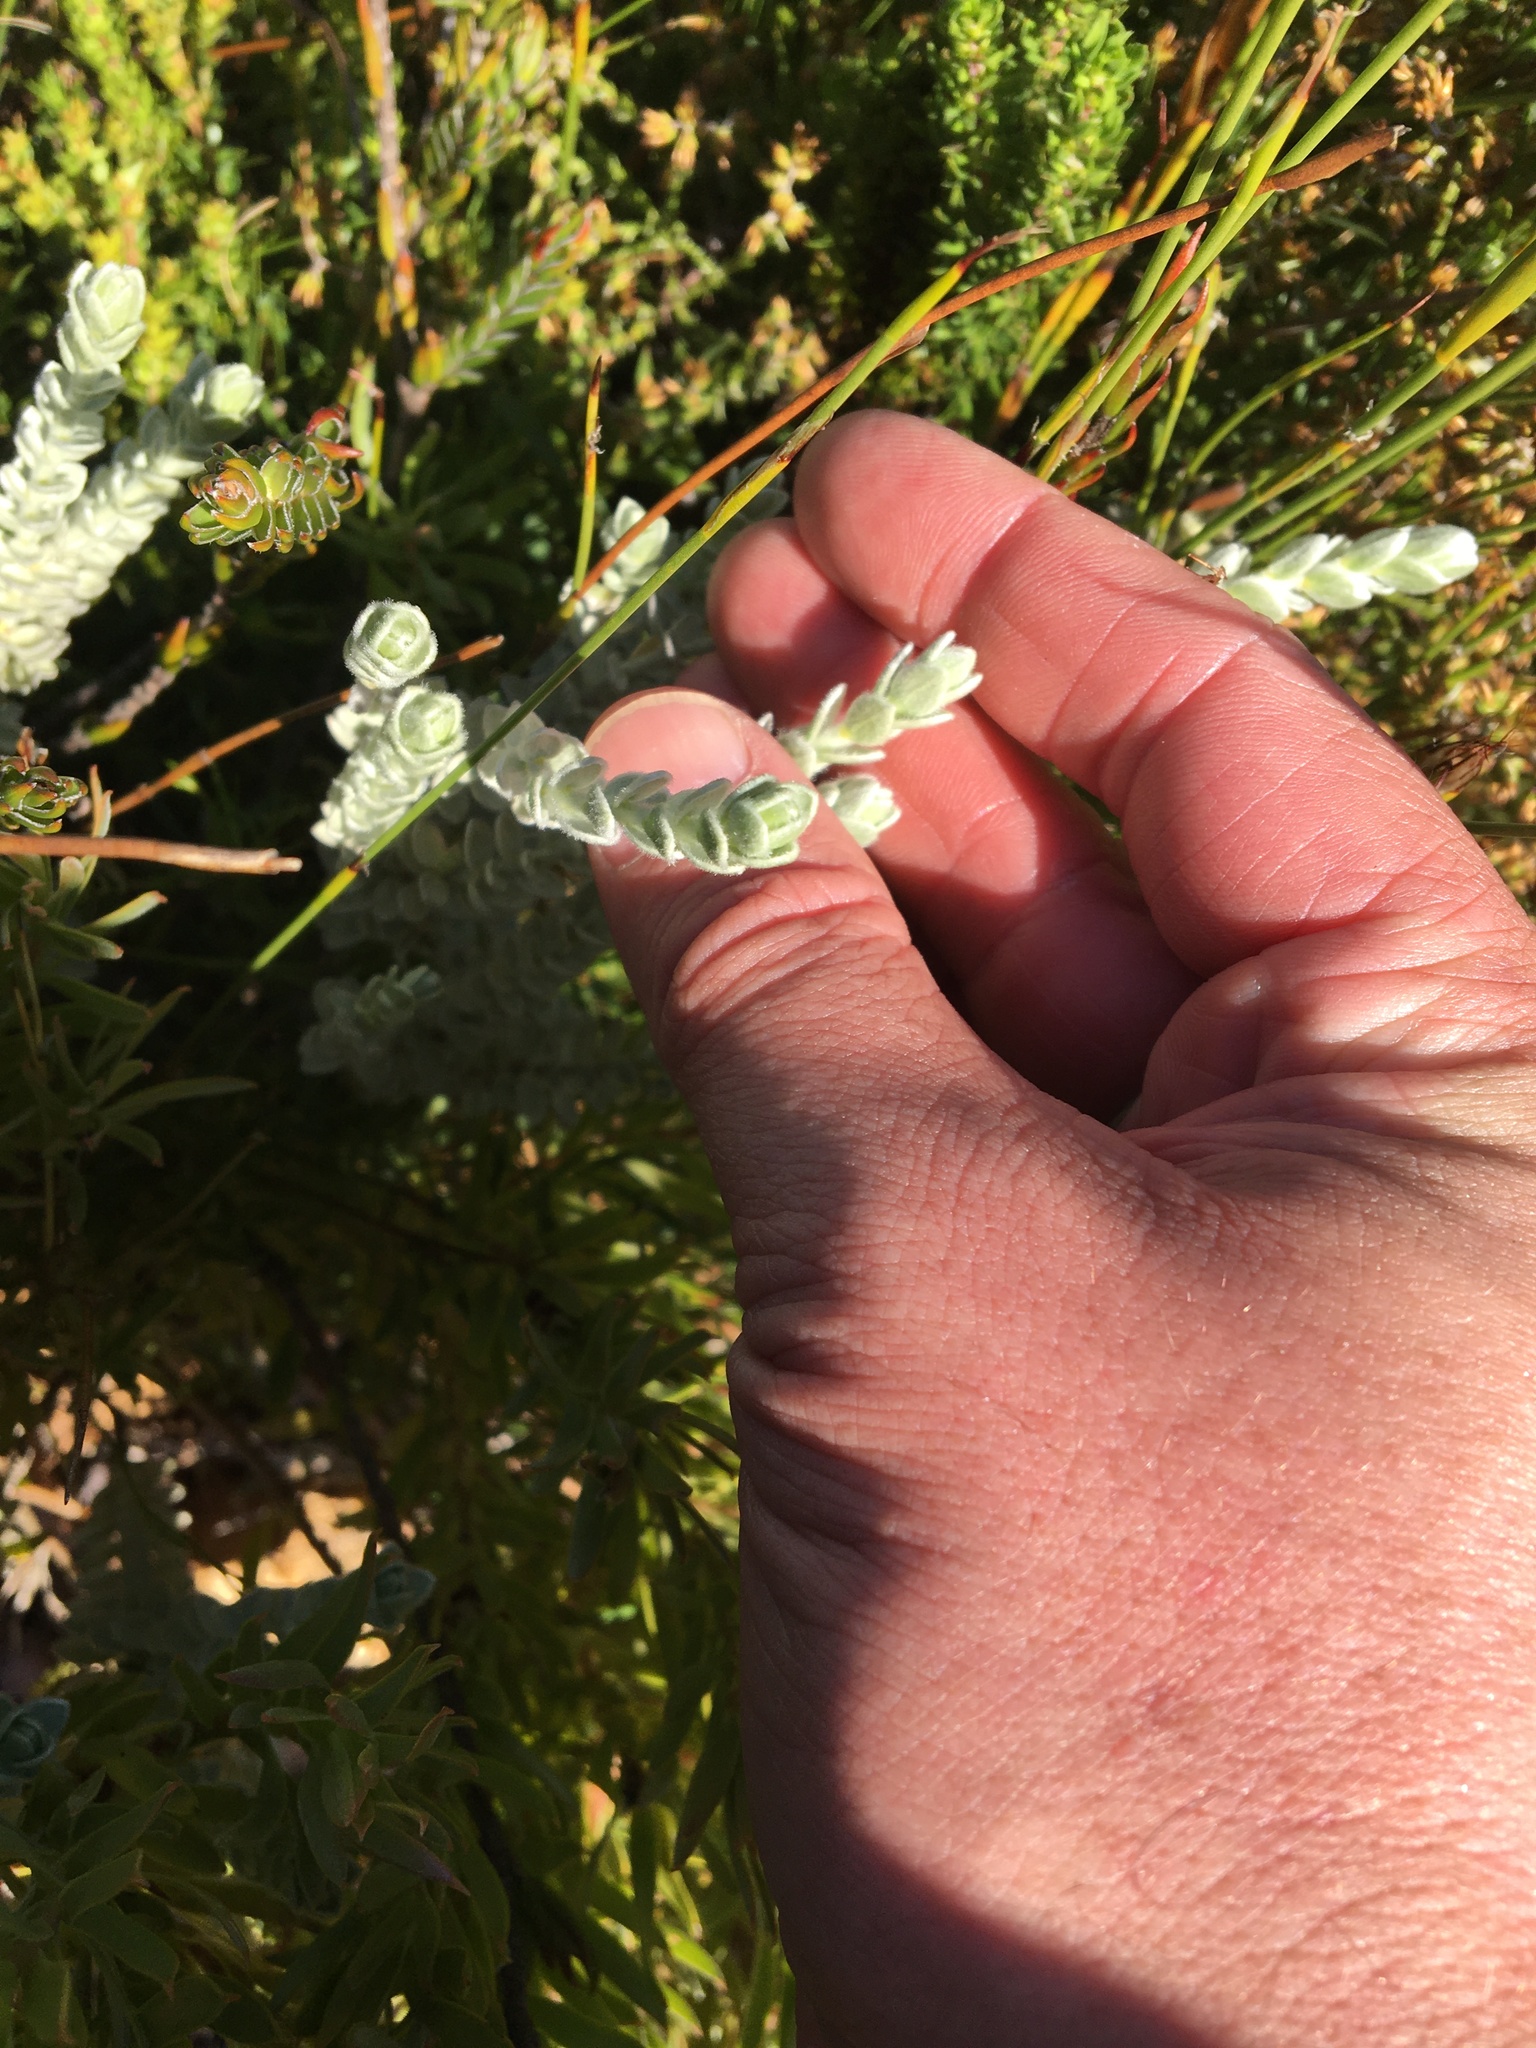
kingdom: Plantae
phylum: Tracheophyta
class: Magnoliopsida
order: Malvales
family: Thymelaeaceae
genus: Gnidia
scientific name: Gnidia imbricata
